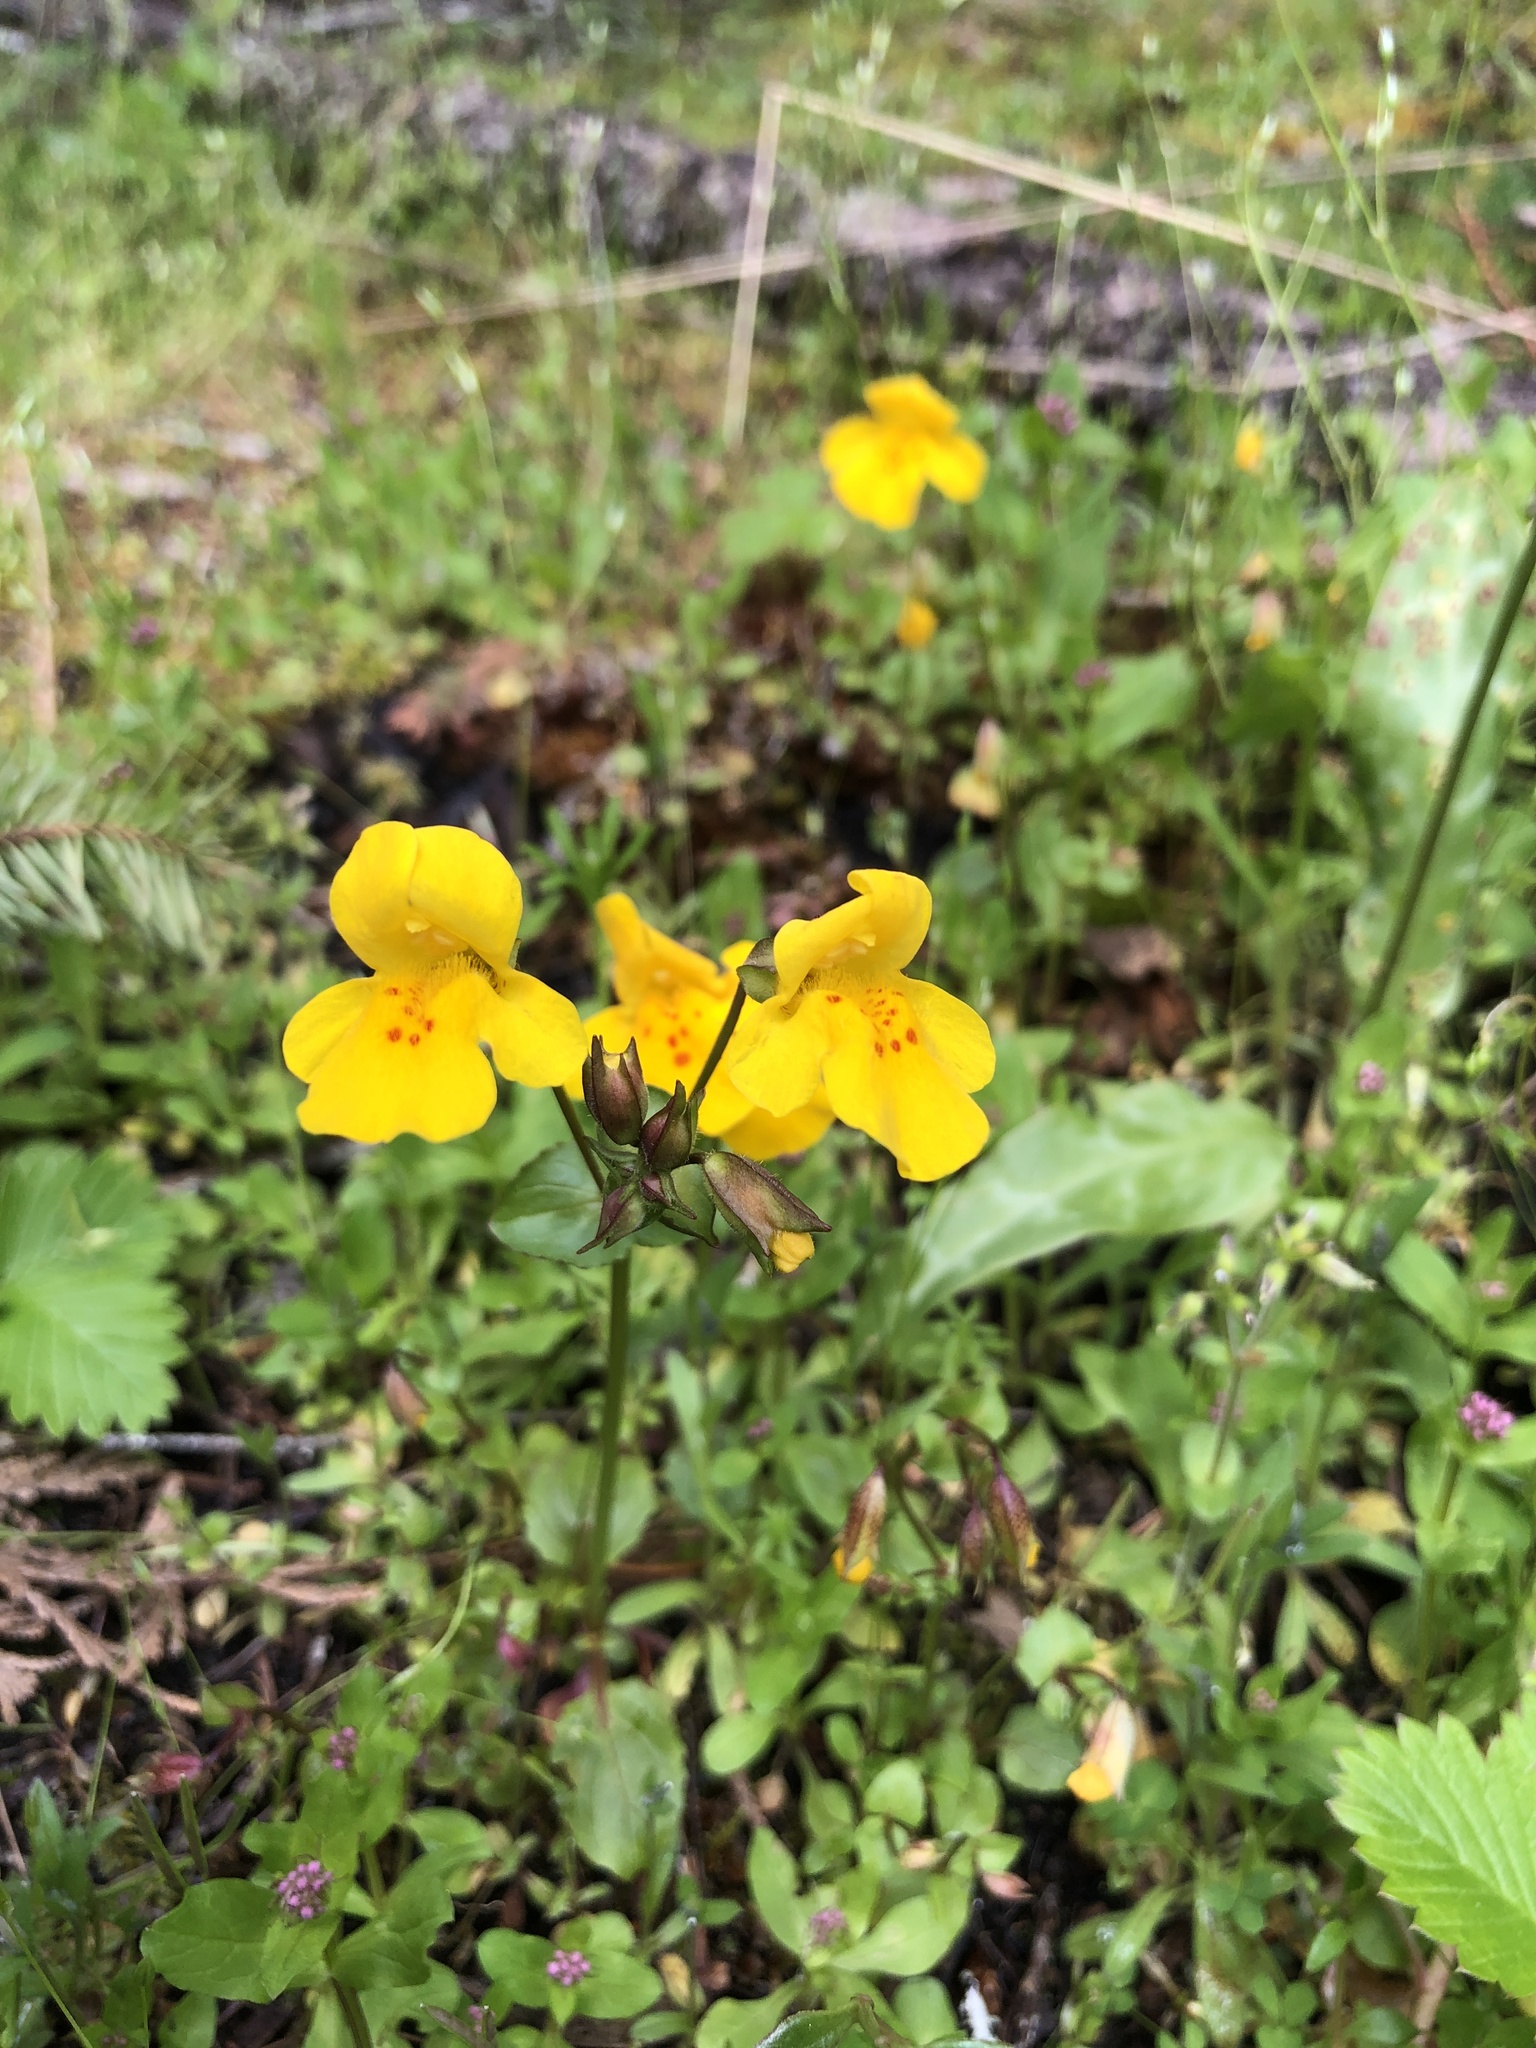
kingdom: Plantae
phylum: Tracheophyta
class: Magnoliopsida
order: Lamiales
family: Phrymaceae
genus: Erythranthe
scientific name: Erythranthe guttata
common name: Monkeyflower
